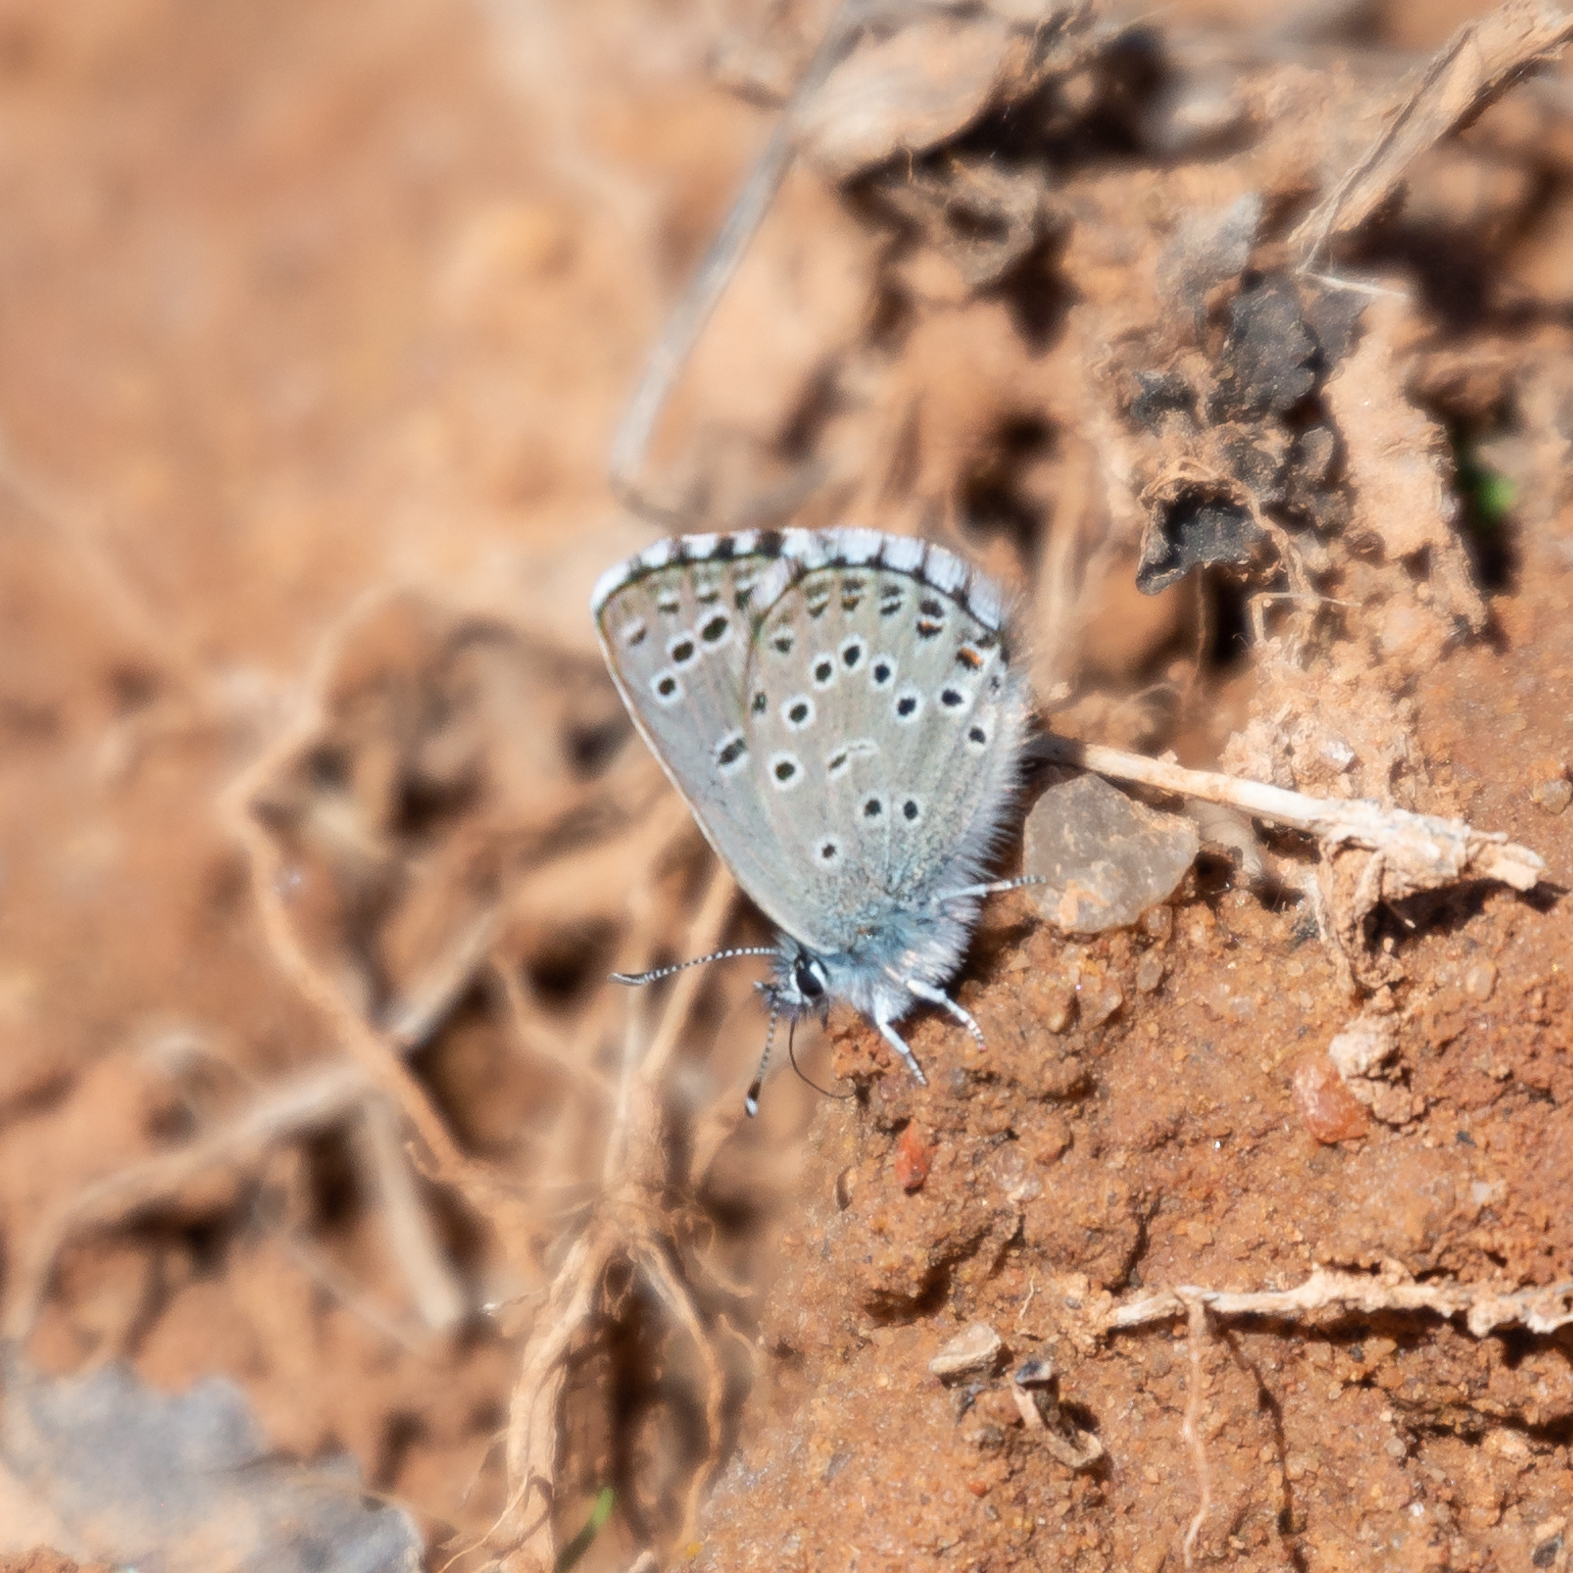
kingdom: Animalia
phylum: Arthropoda
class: Insecta
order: Lepidoptera
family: Lycaenidae
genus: Pseudophilotes
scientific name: Pseudophilotes baton
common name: Baton blue
